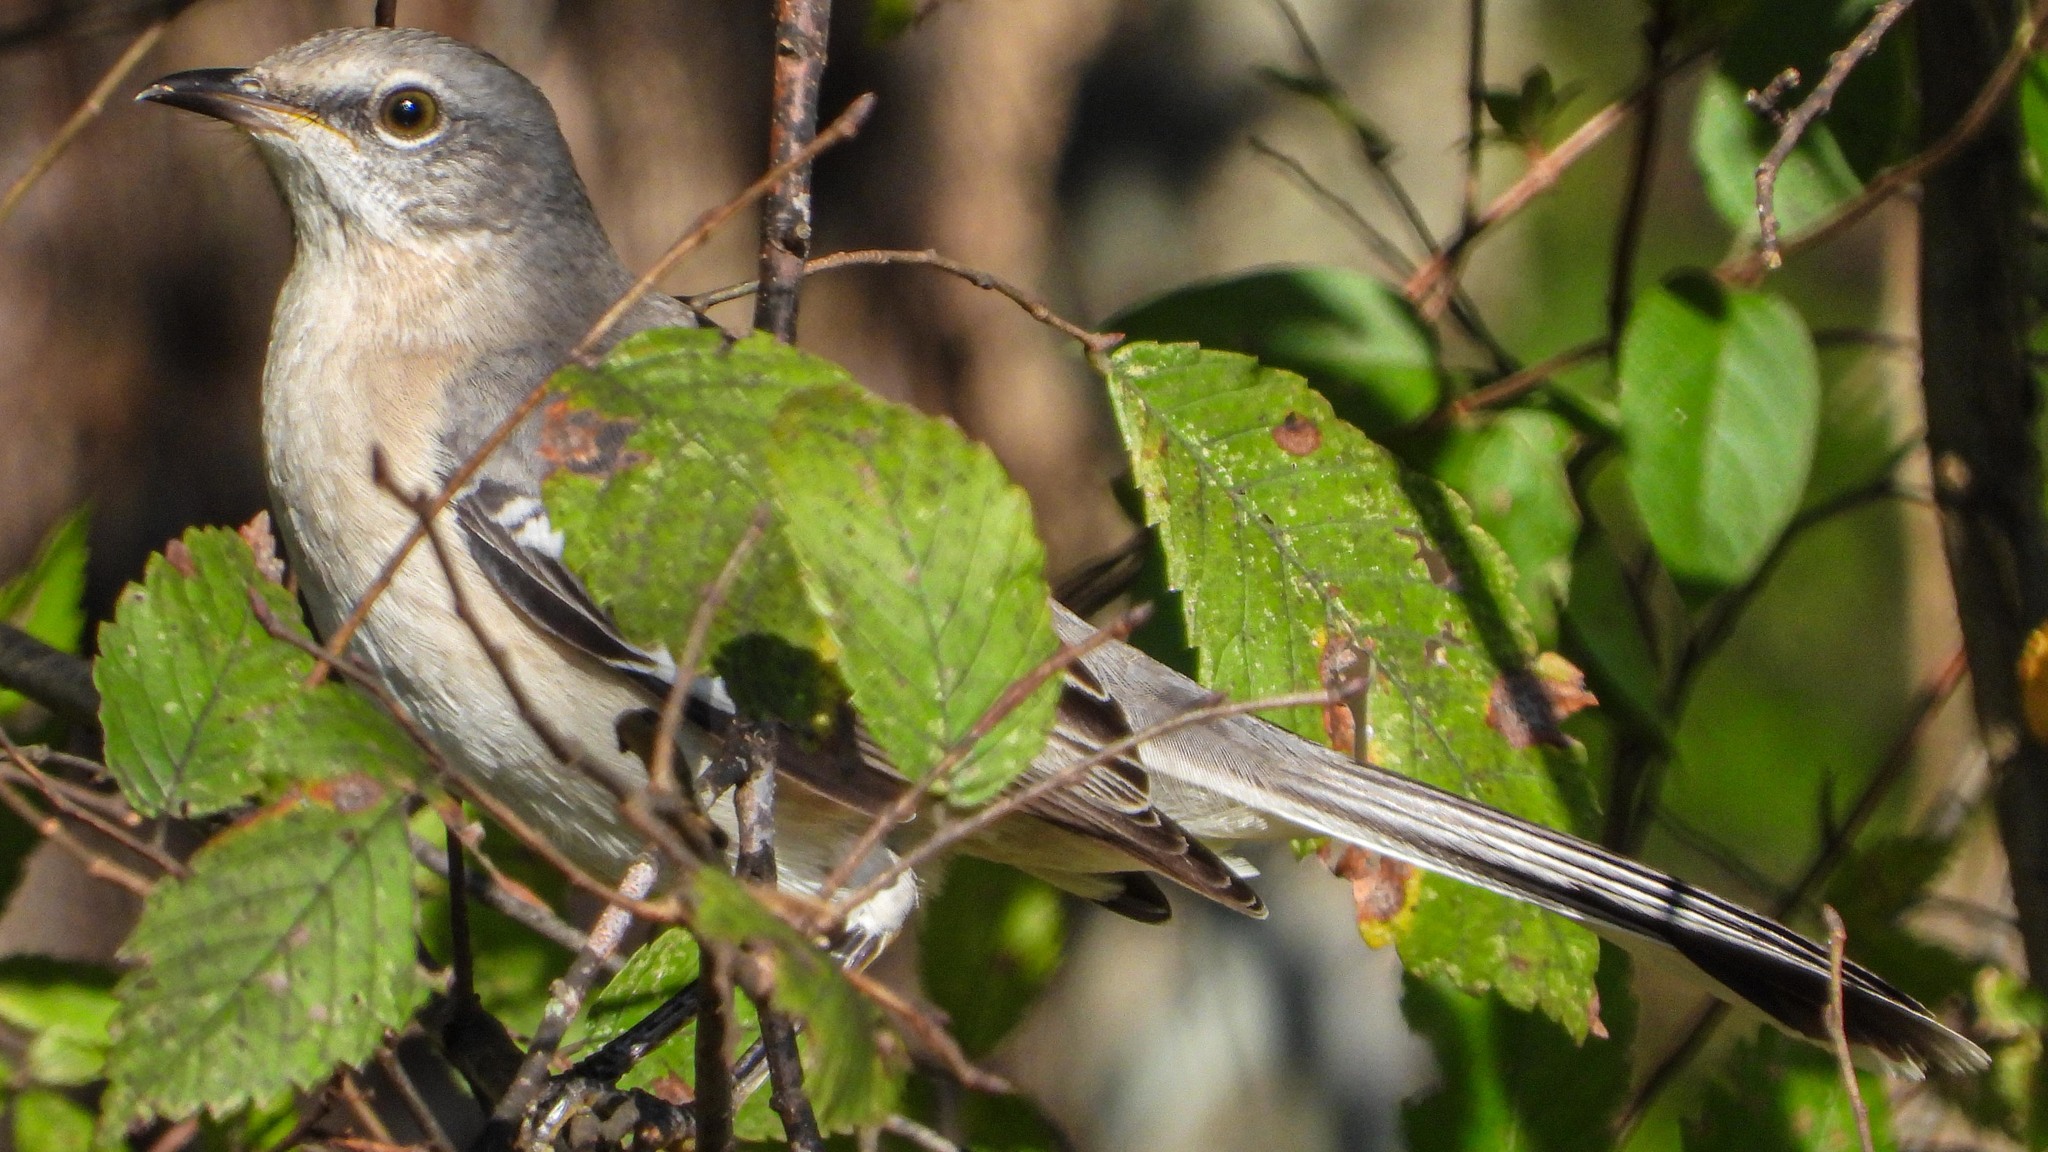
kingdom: Animalia
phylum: Chordata
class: Aves
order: Passeriformes
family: Mimidae
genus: Mimus
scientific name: Mimus polyglottos
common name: Northern mockingbird
